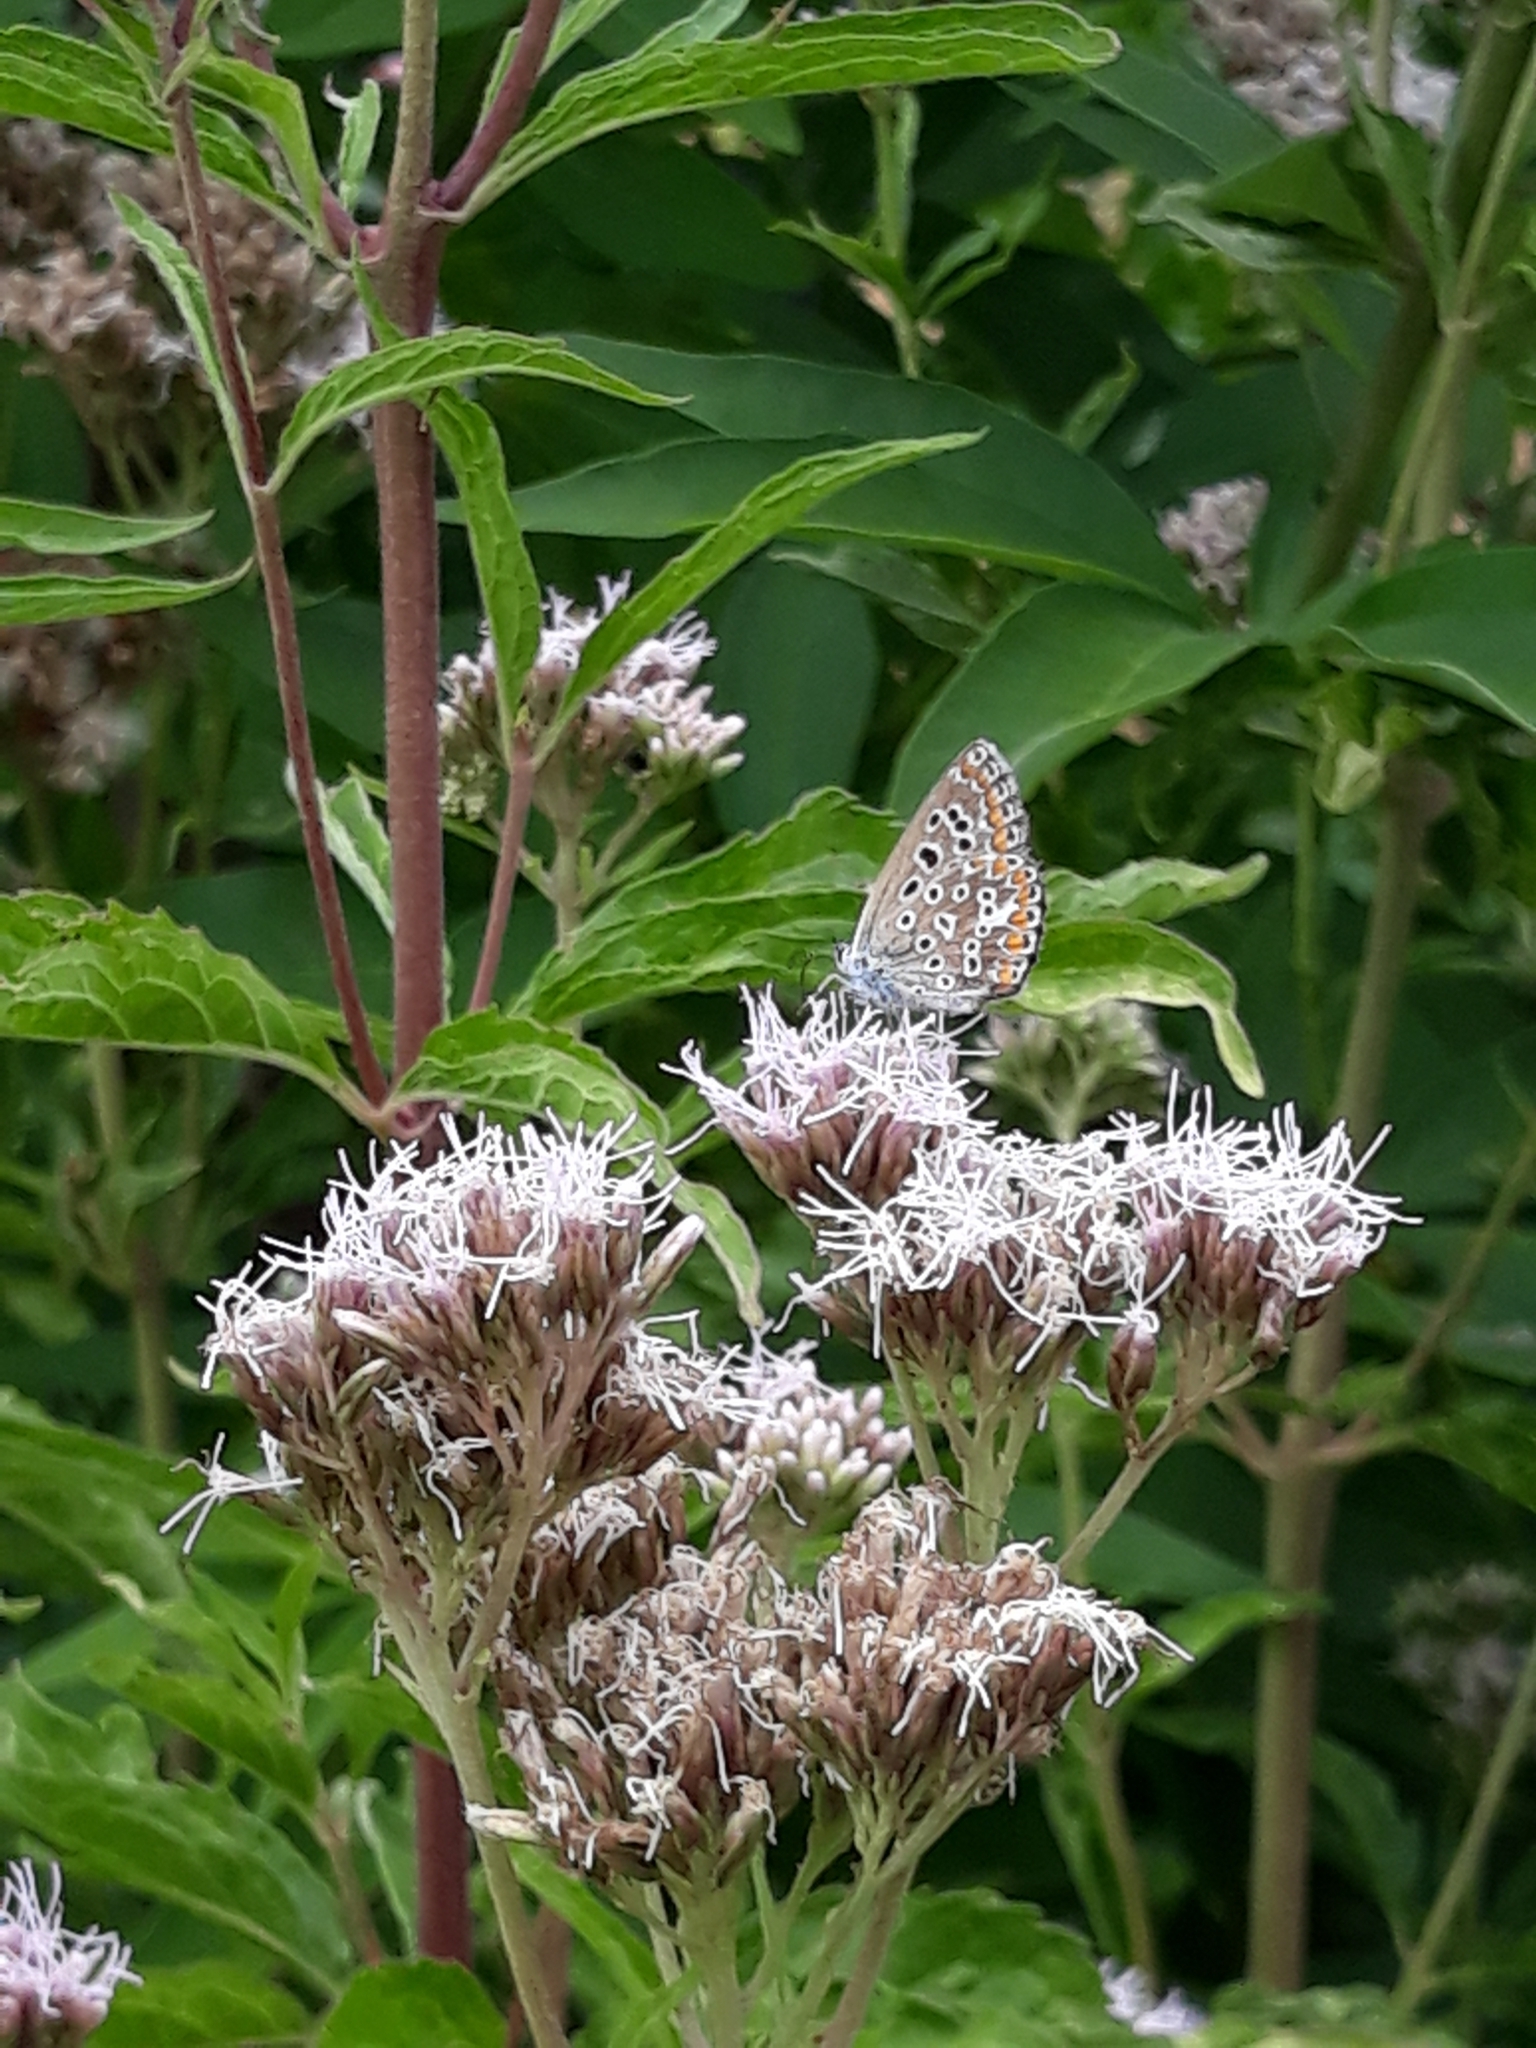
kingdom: Animalia
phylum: Arthropoda
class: Insecta
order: Lepidoptera
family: Lycaenidae
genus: Polyommatus
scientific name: Polyommatus icarus
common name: Common blue
